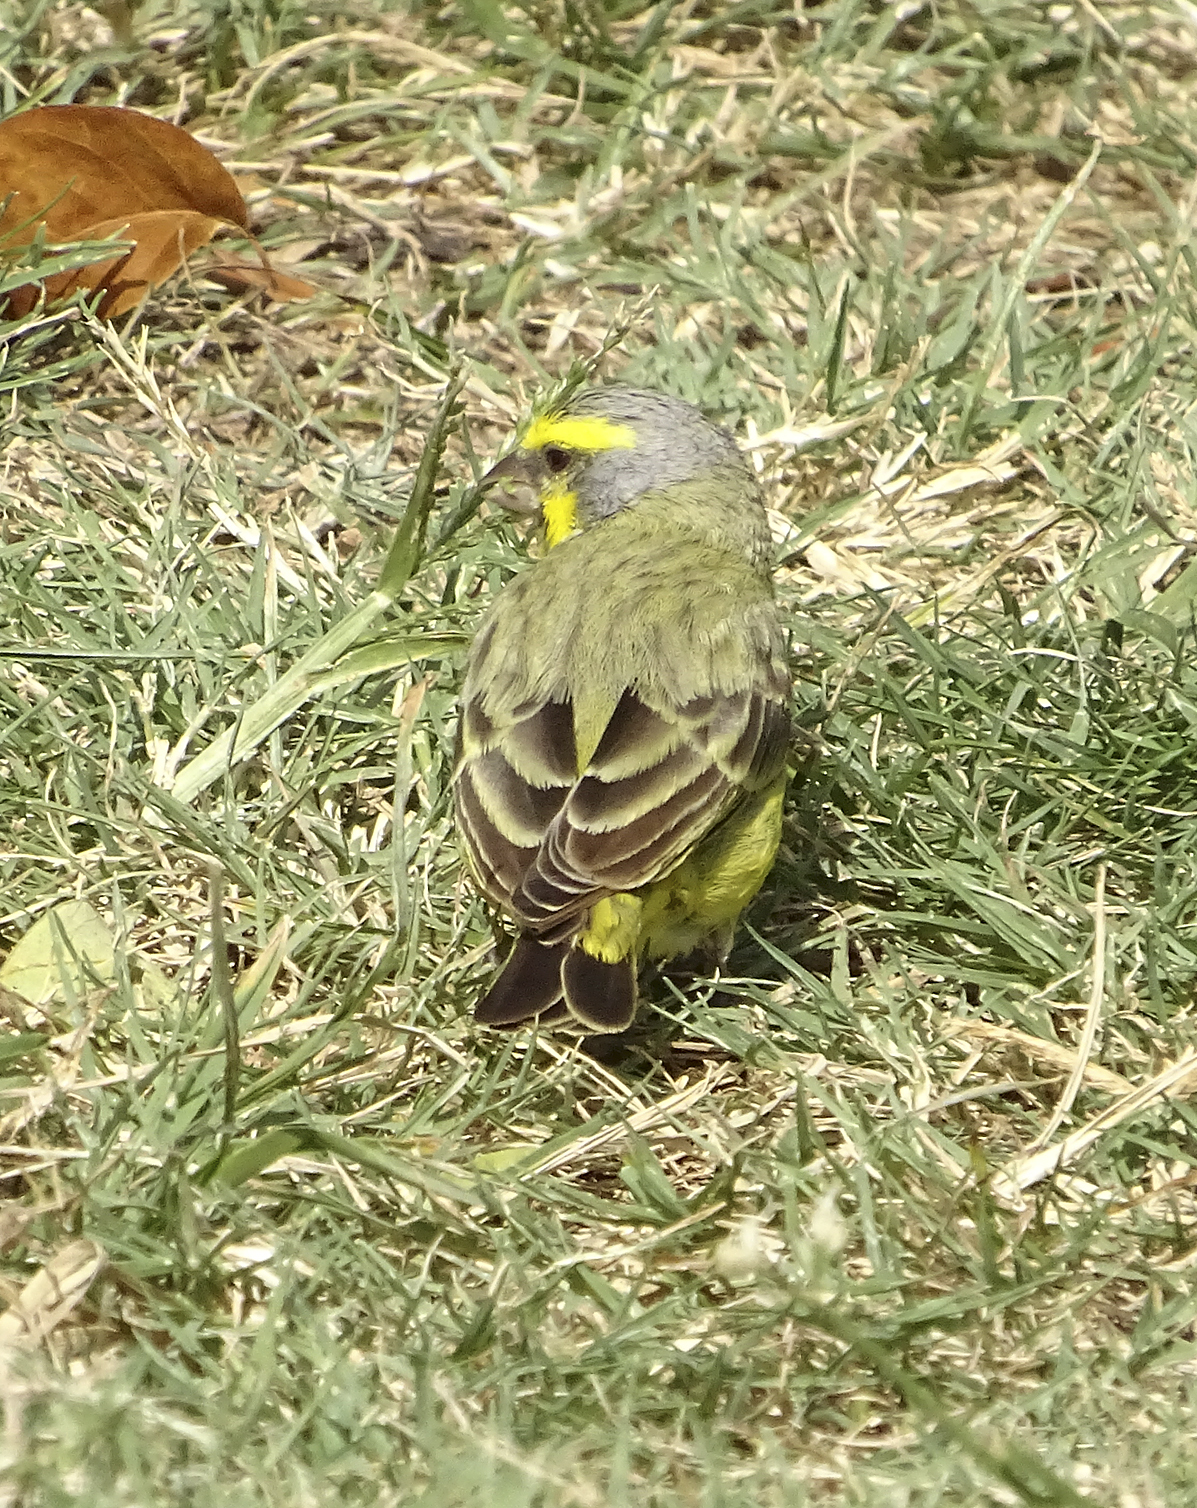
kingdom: Animalia
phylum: Chordata
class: Aves
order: Passeriformes
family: Fringillidae
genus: Crithagra
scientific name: Crithagra mozambica
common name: Yellow-fronted canary
